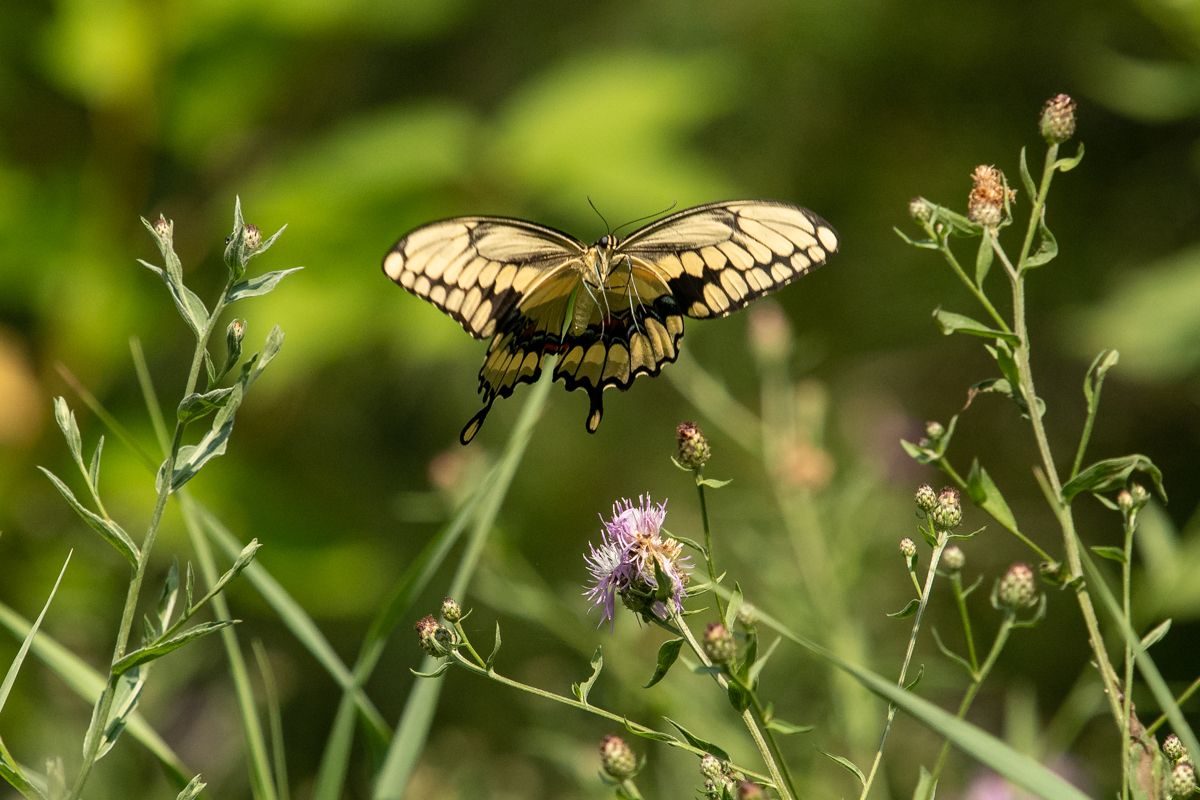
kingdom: Animalia
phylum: Arthropoda
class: Insecta
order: Lepidoptera
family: Papilionidae
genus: Papilio
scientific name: Papilio cresphontes
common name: Giant swallowtail
